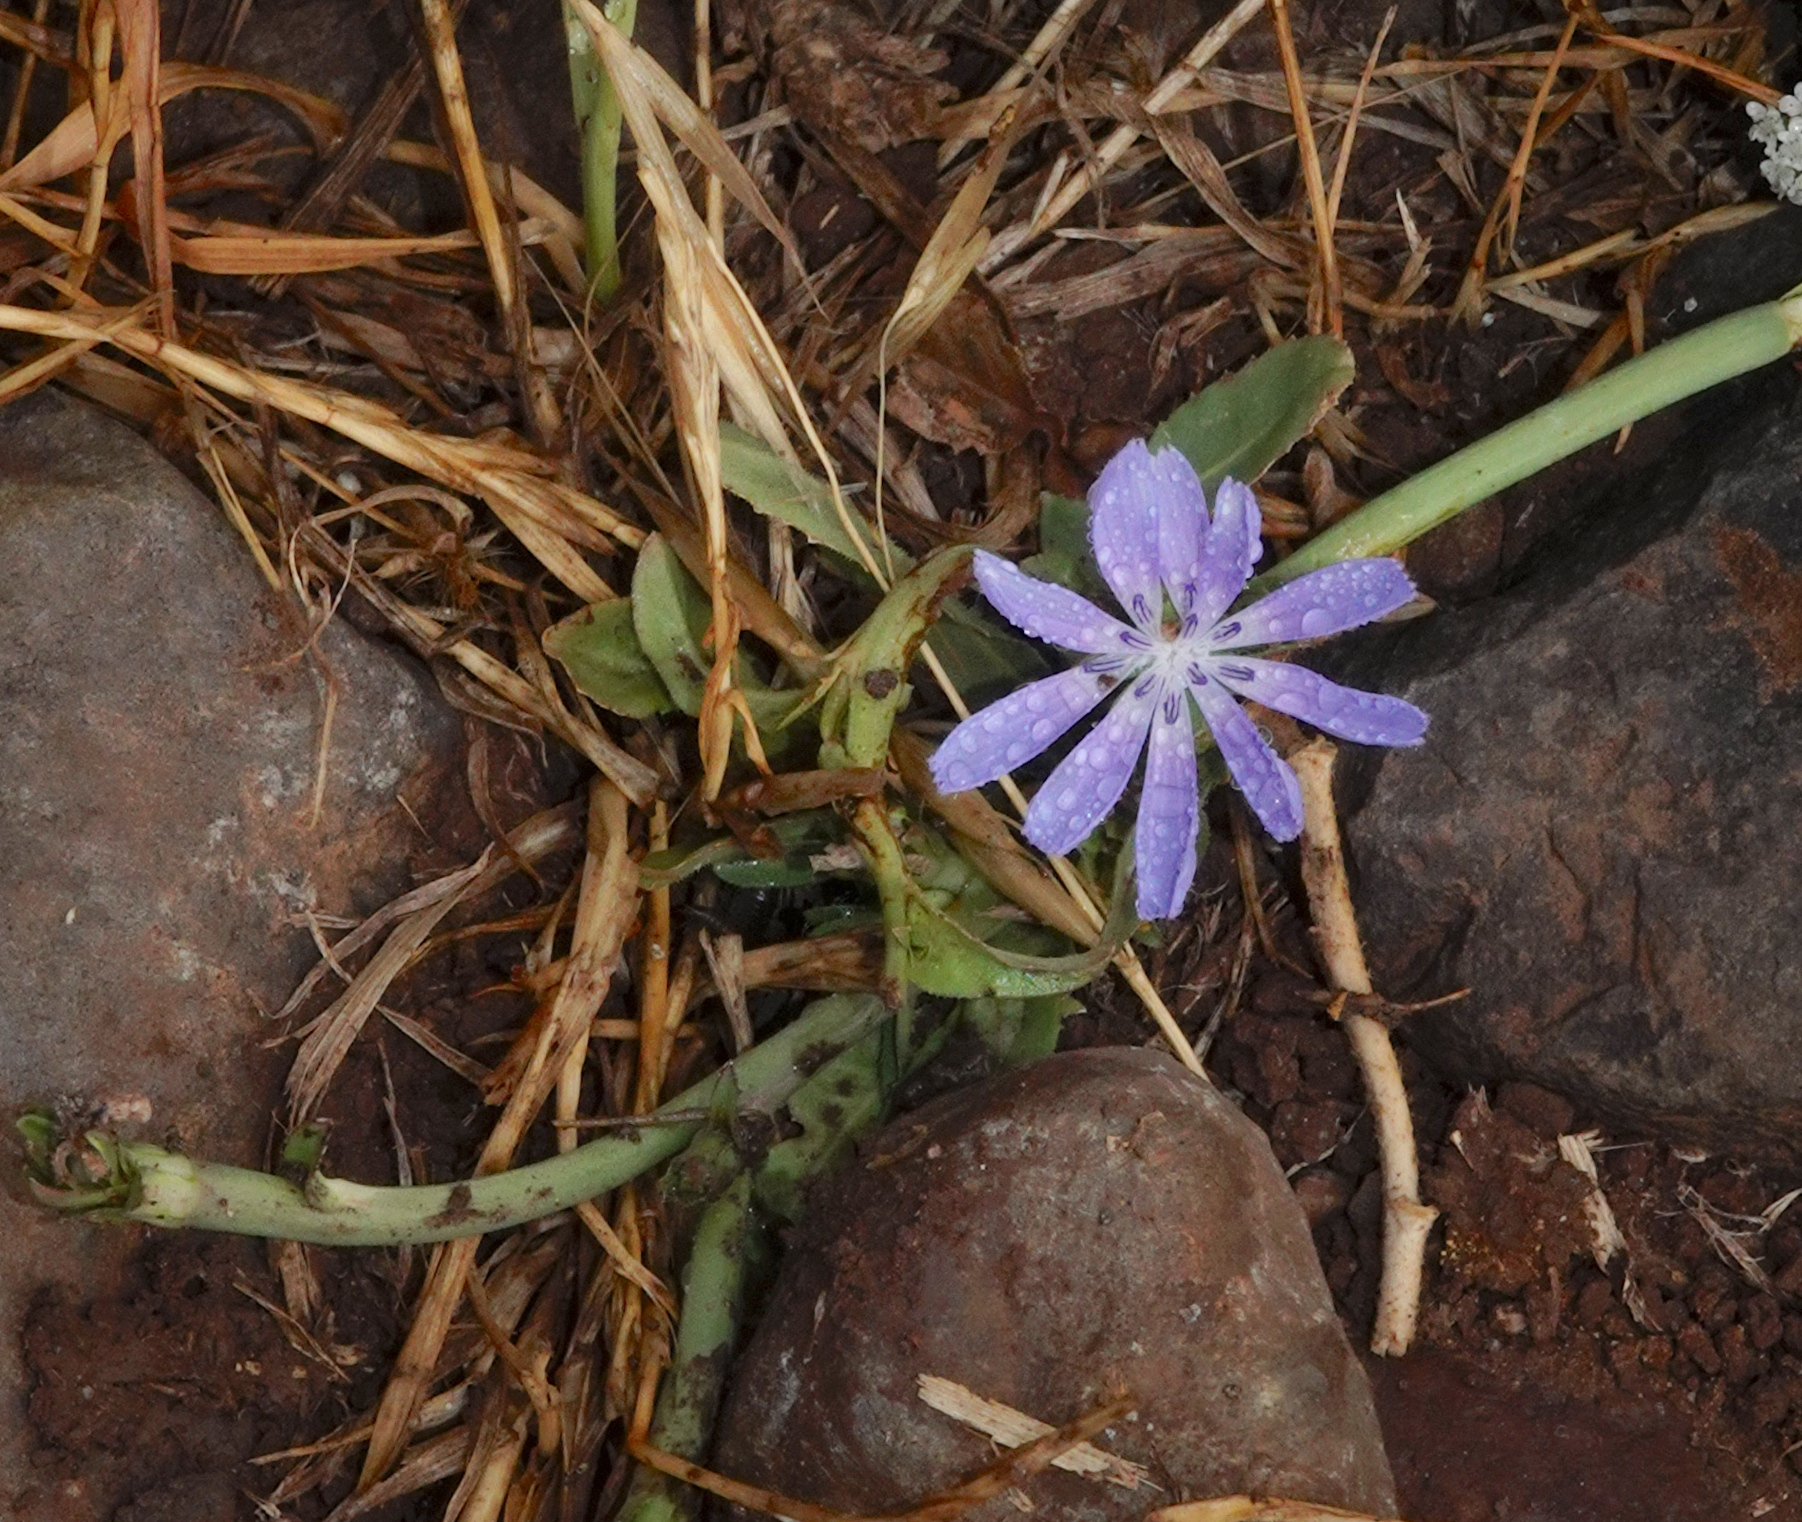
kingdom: Plantae
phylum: Tracheophyta
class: Magnoliopsida
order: Asterales
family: Asteraceae
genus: Cichorium
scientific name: Cichorium pumilum
